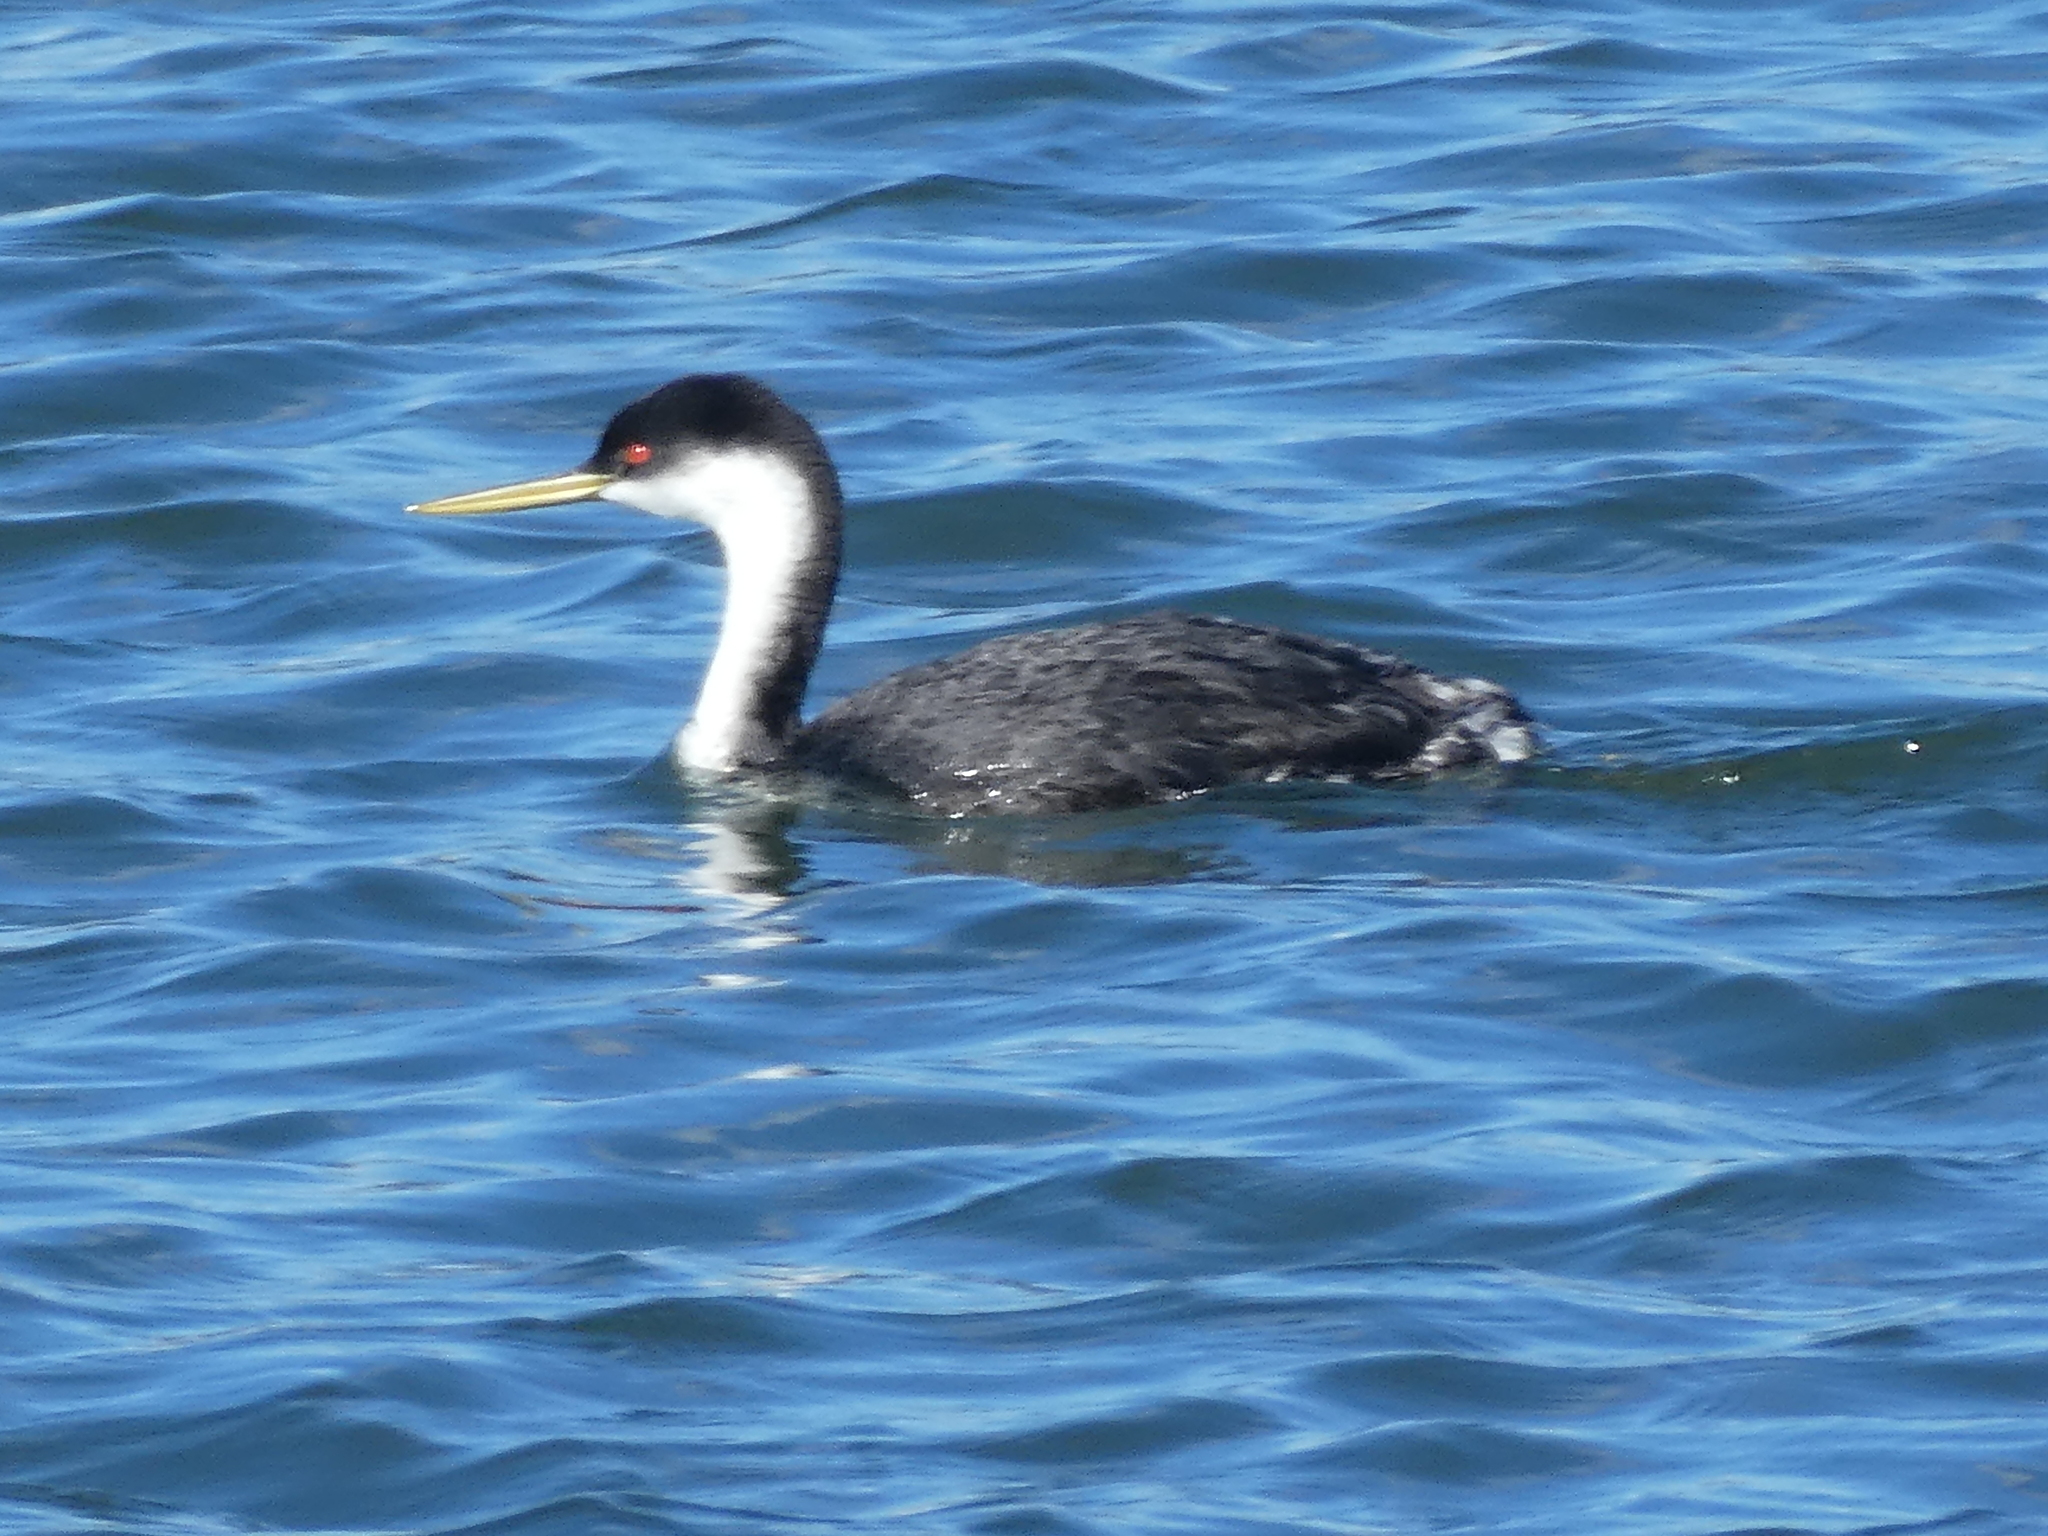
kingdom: Animalia
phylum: Chordata
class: Aves
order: Podicipediformes
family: Podicipedidae
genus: Aechmophorus
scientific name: Aechmophorus occidentalis
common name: Western grebe
